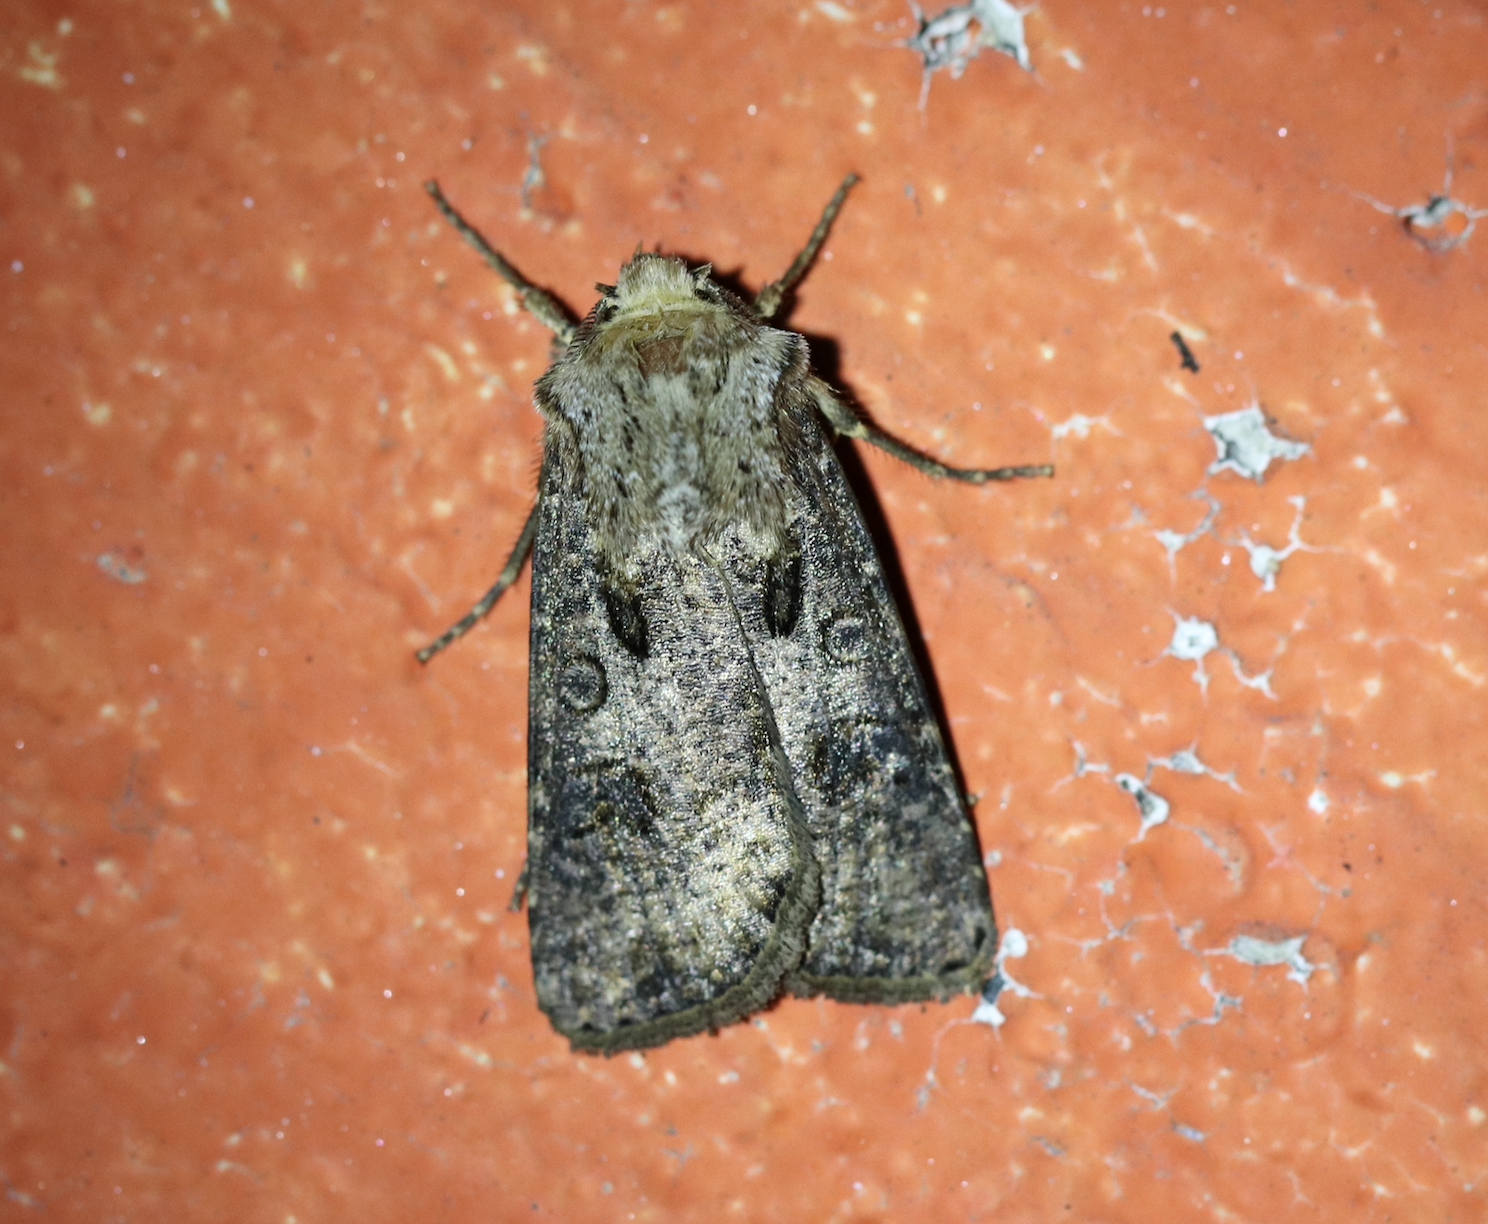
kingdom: Animalia
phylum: Arthropoda
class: Insecta
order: Lepidoptera
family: Noctuidae
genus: Agrotis
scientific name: Agrotis clavis
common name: Heart and club
